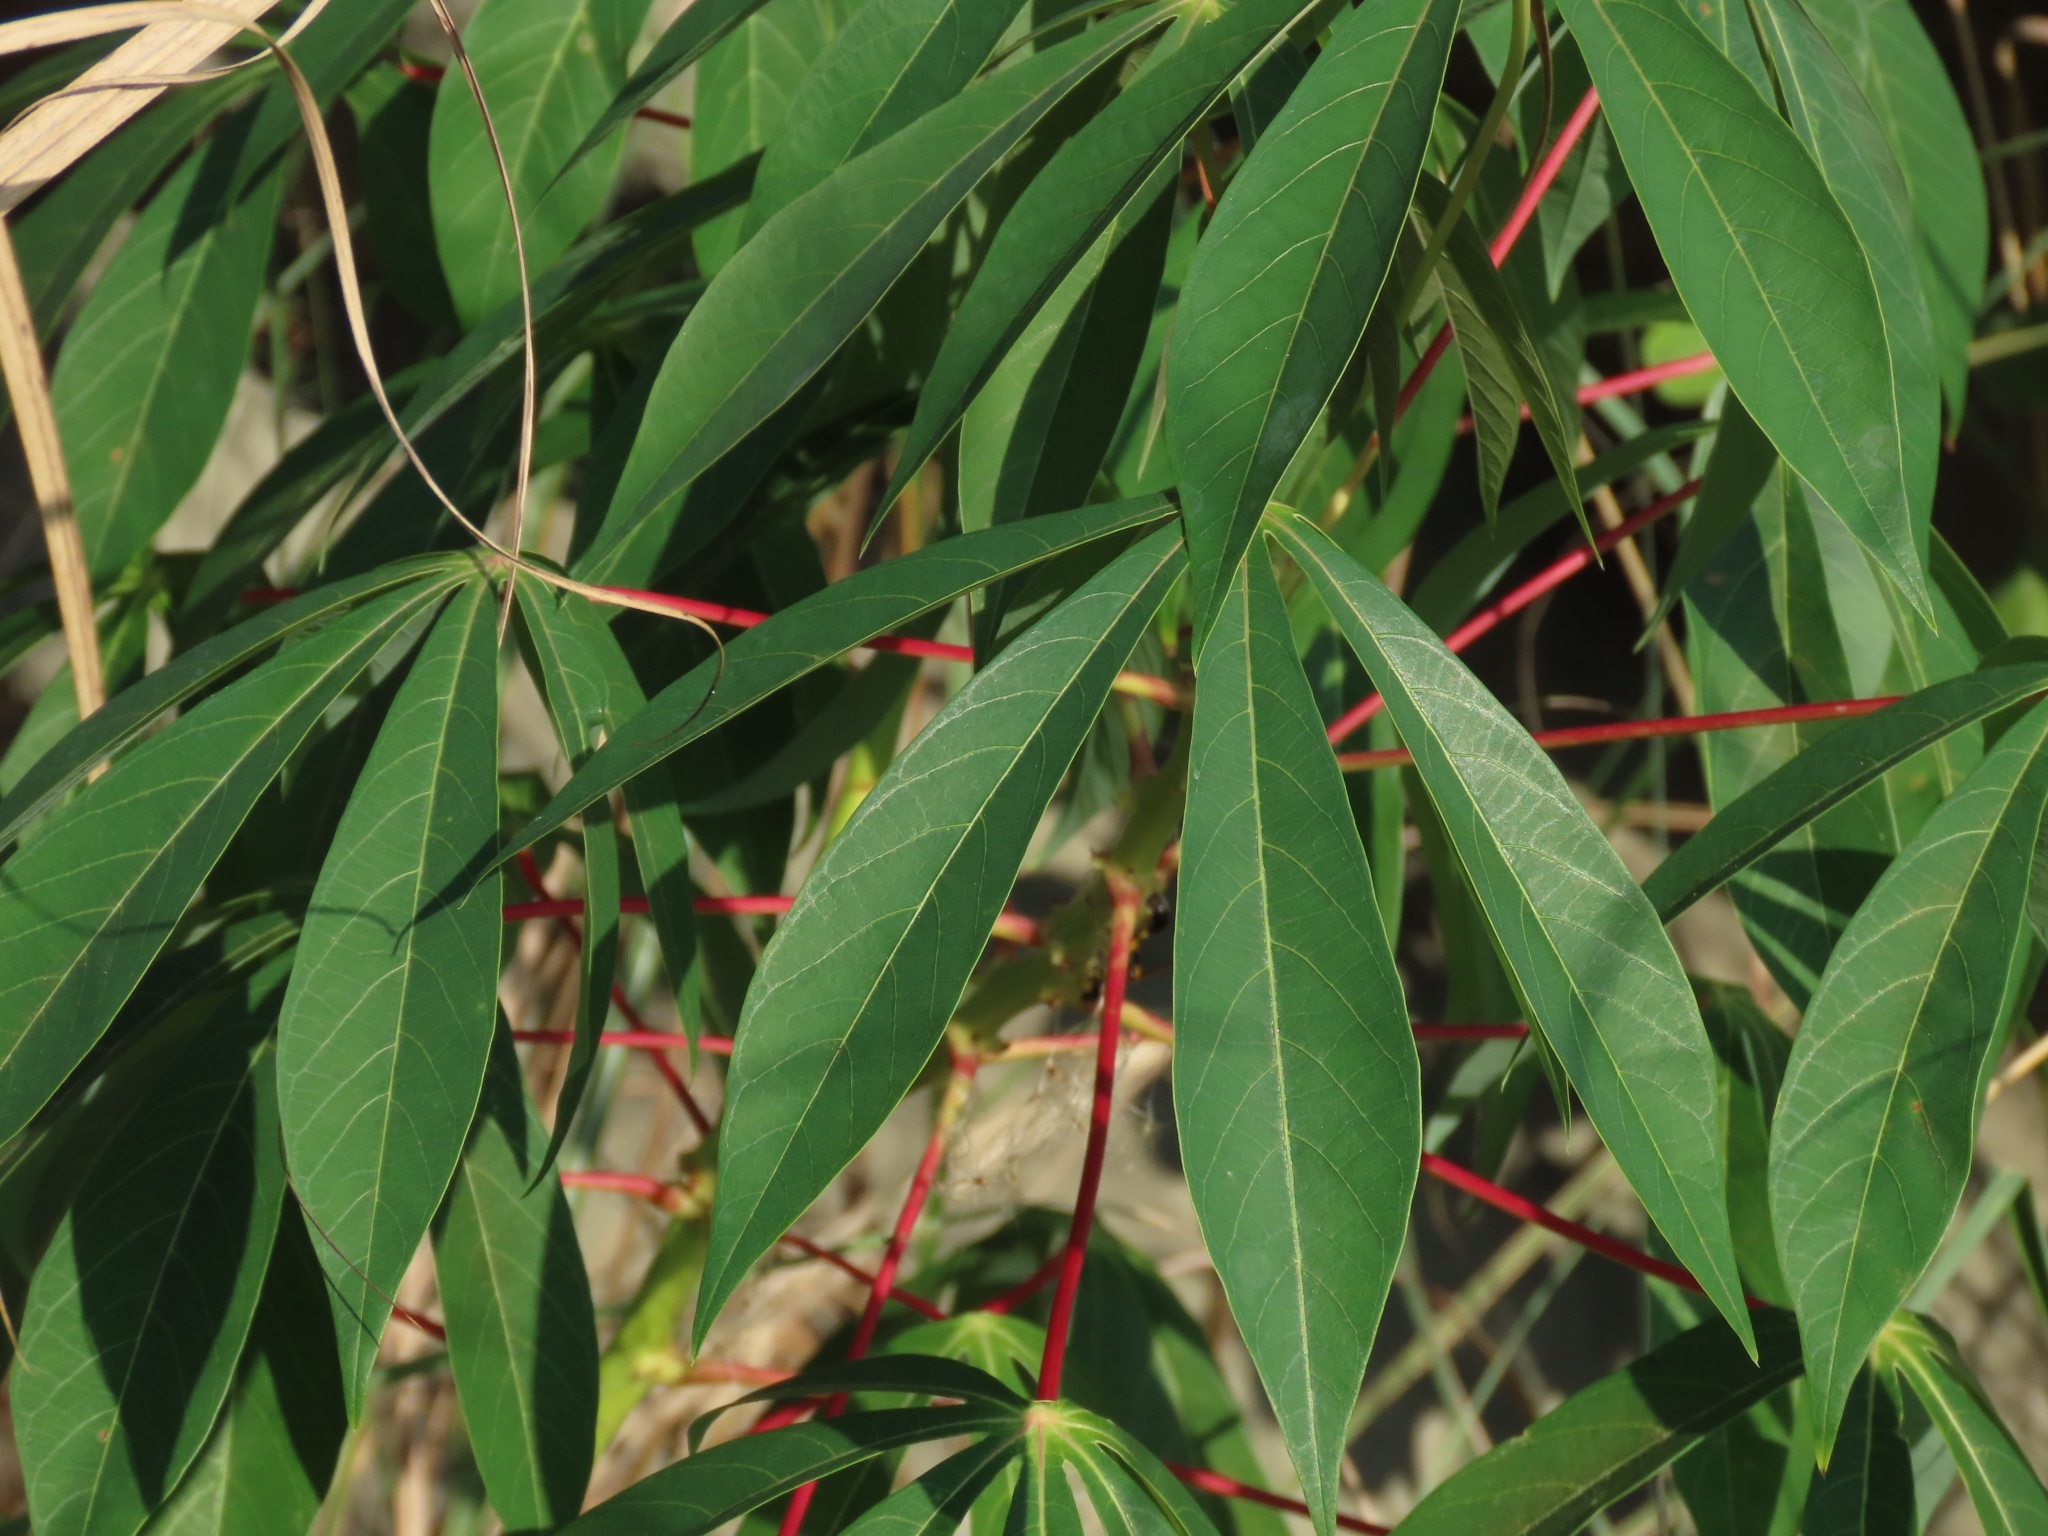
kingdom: Plantae
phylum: Tracheophyta
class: Magnoliopsida
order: Malpighiales
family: Euphorbiaceae
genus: Manihot
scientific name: Manihot esculenta
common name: Cassava
